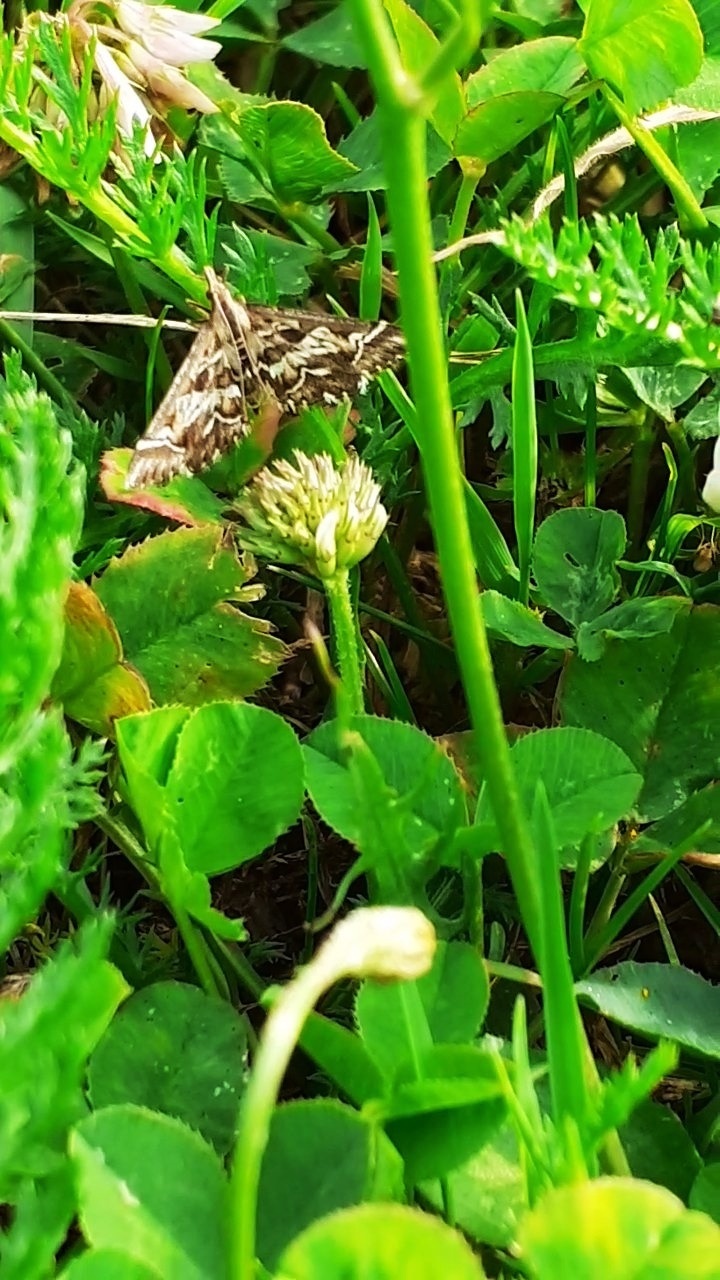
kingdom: Animalia
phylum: Arthropoda
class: Insecta
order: Lepidoptera
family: Crambidae
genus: Diasemia
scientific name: Diasemia reticularis
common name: Lettered china-mark
